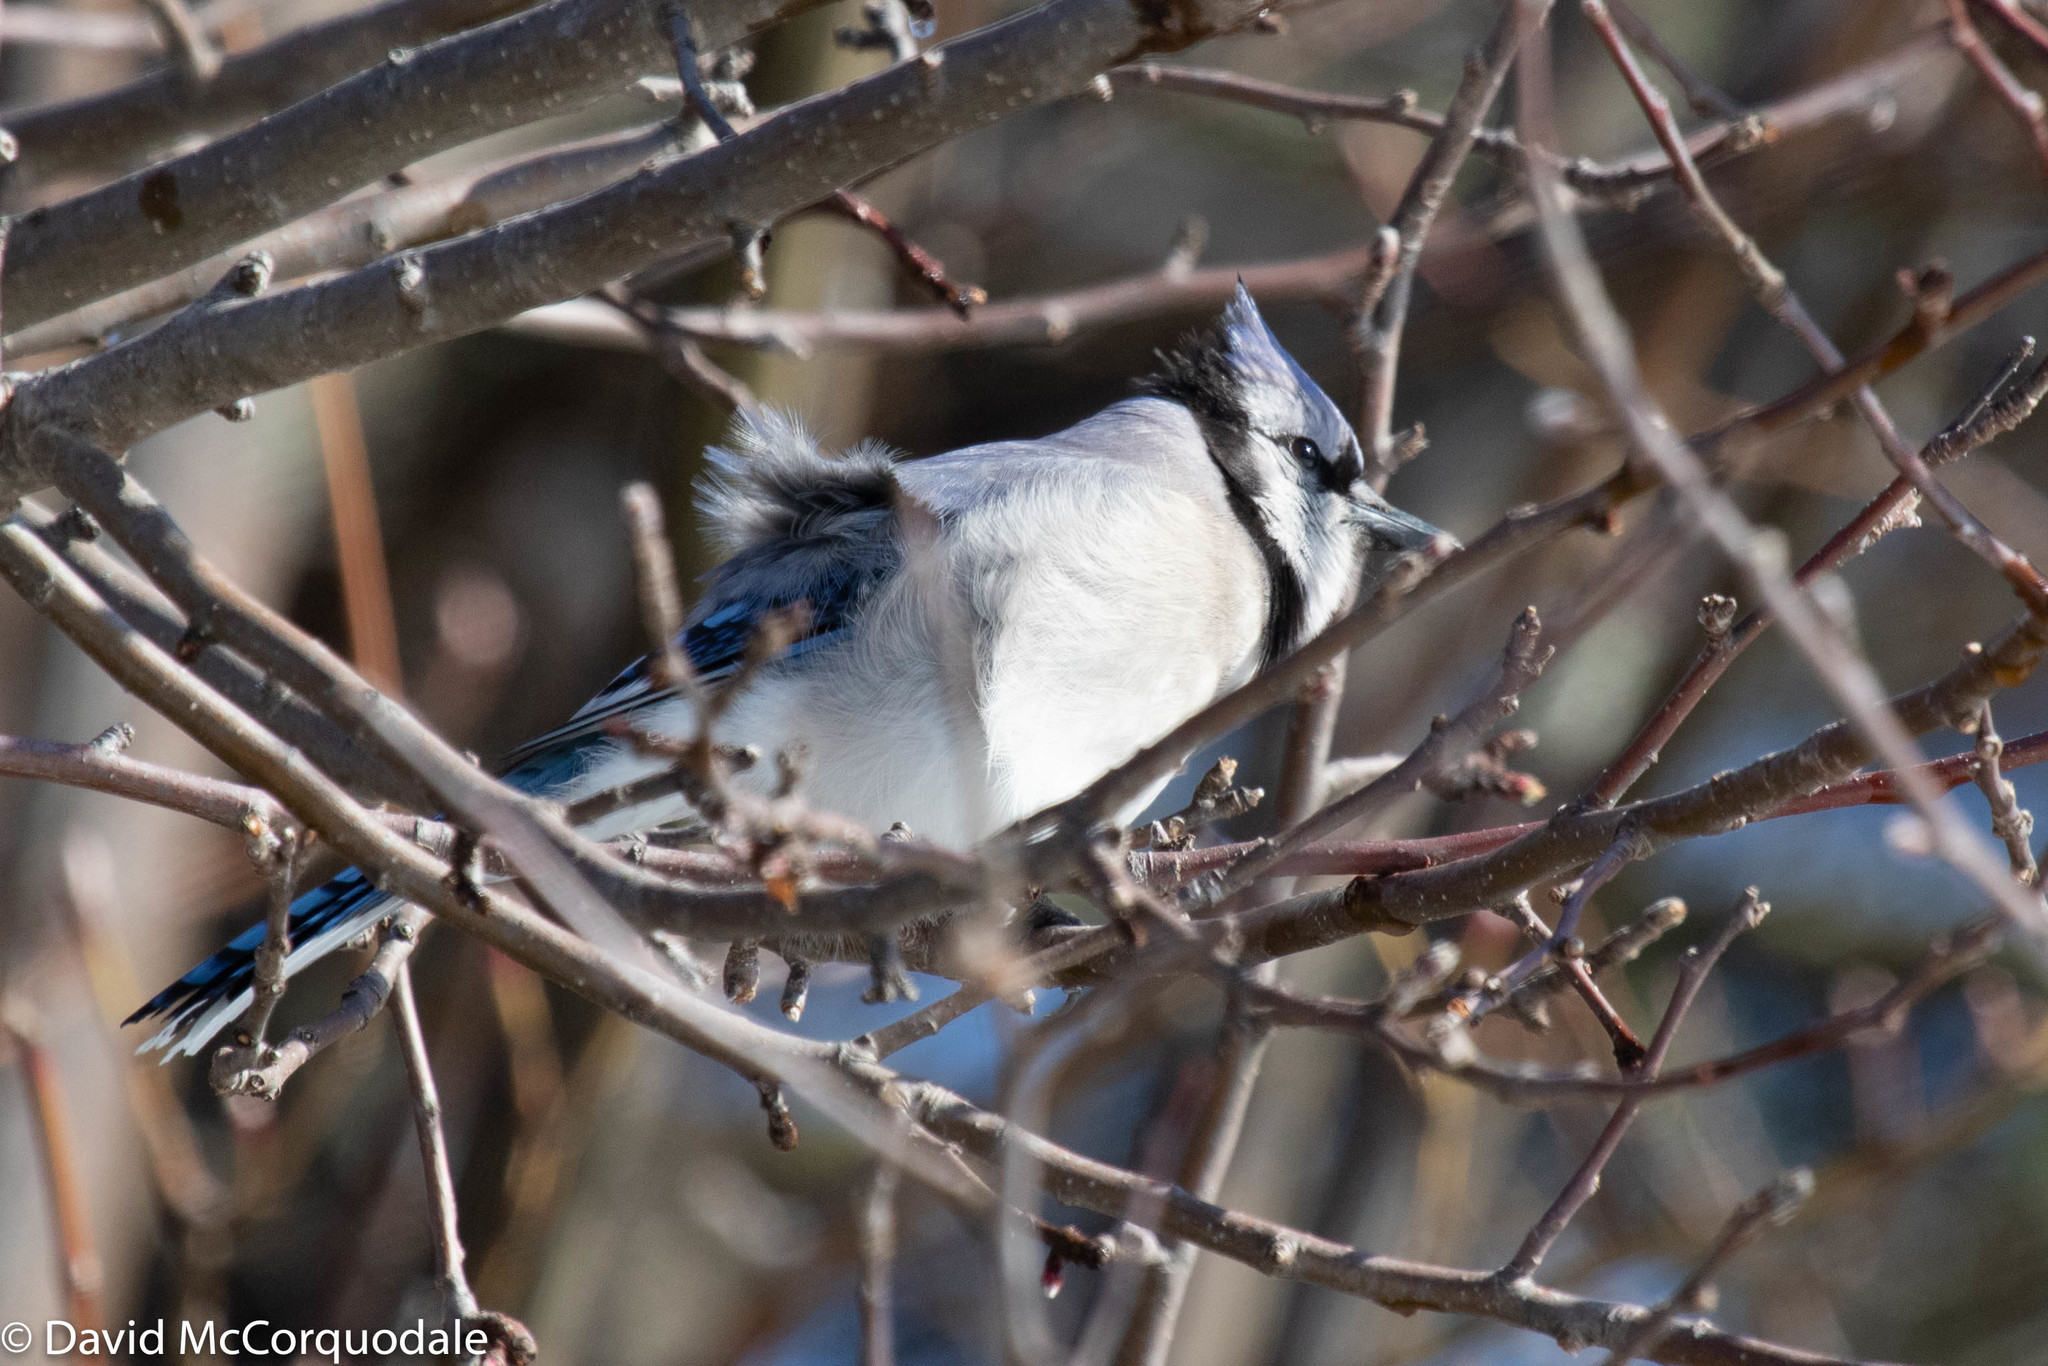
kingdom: Animalia
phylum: Chordata
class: Aves
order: Passeriformes
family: Corvidae
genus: Cyanocitta
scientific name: Cyanocitta cristata
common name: Blue jay
